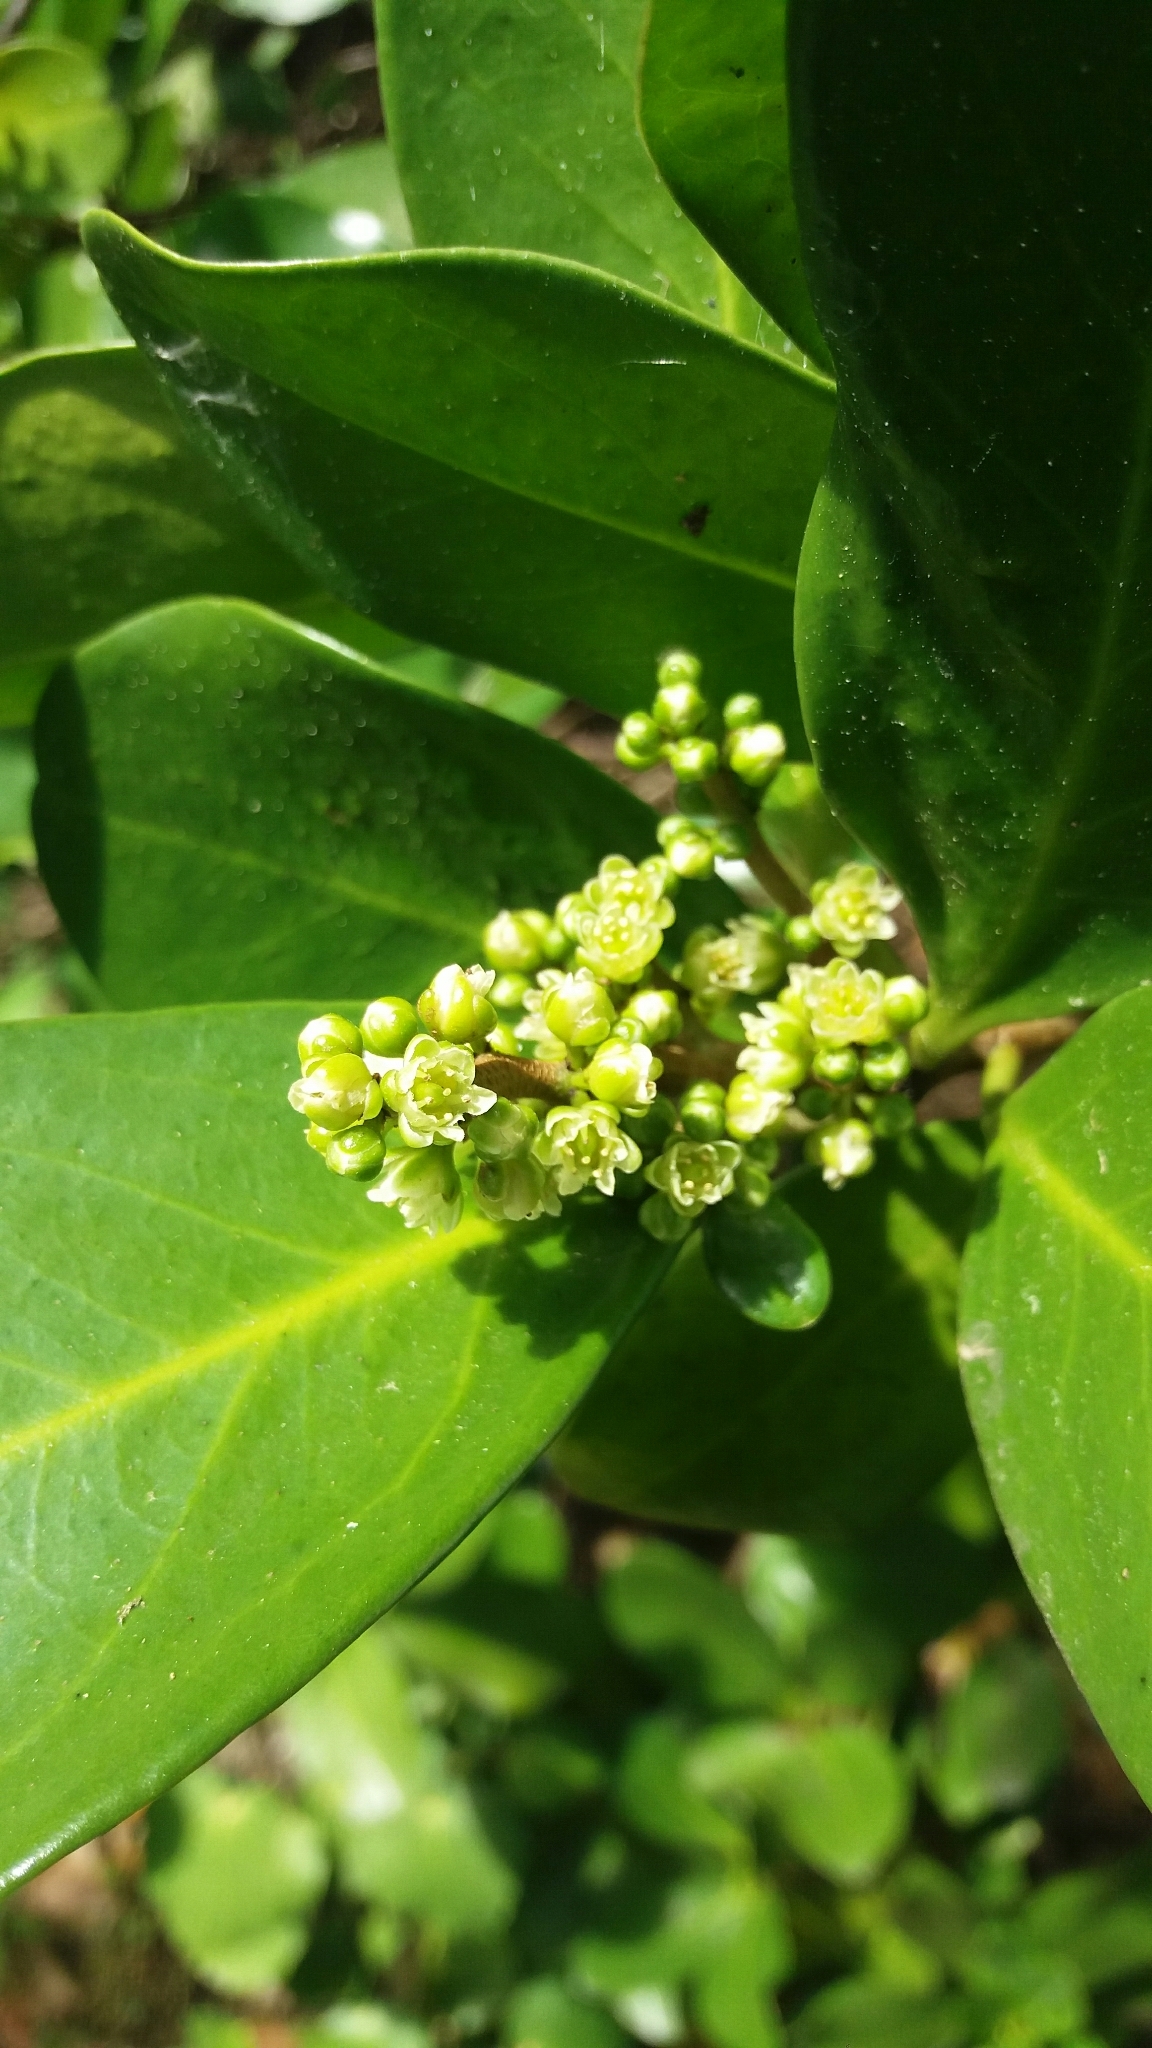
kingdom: Plantae
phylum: Tracheophyta
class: Magnoliopsida
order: Cucurbitales
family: Corynocarpaceae
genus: Corynocarpus
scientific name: Corynocarpus laevigatus
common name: New zealand laurel
